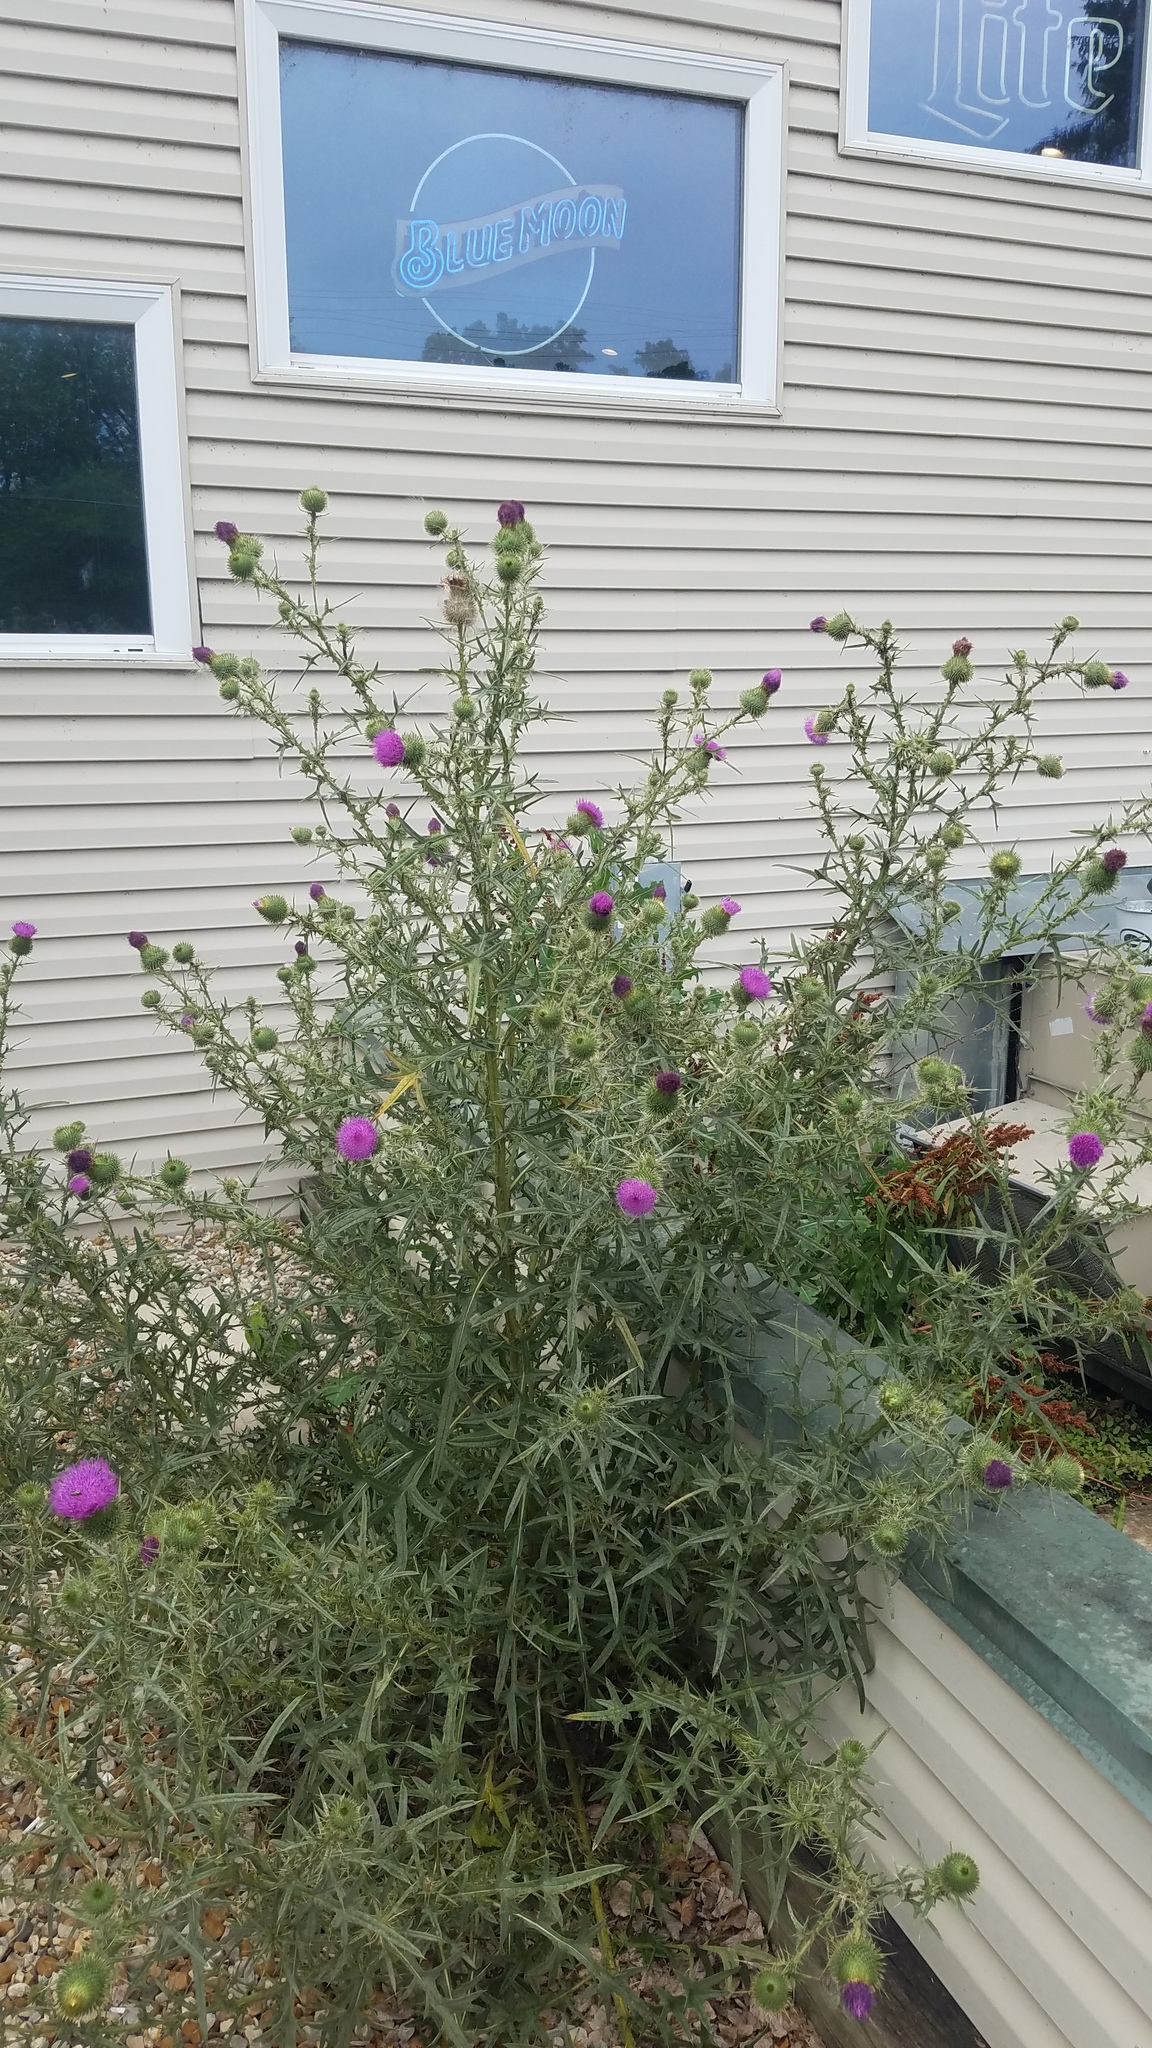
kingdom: Plantae
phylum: Tracheophyta
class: Magnoliopsida
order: Asterales
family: Asteraceae
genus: Cirsium
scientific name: Cirsium vulgare
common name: Bull thistle
